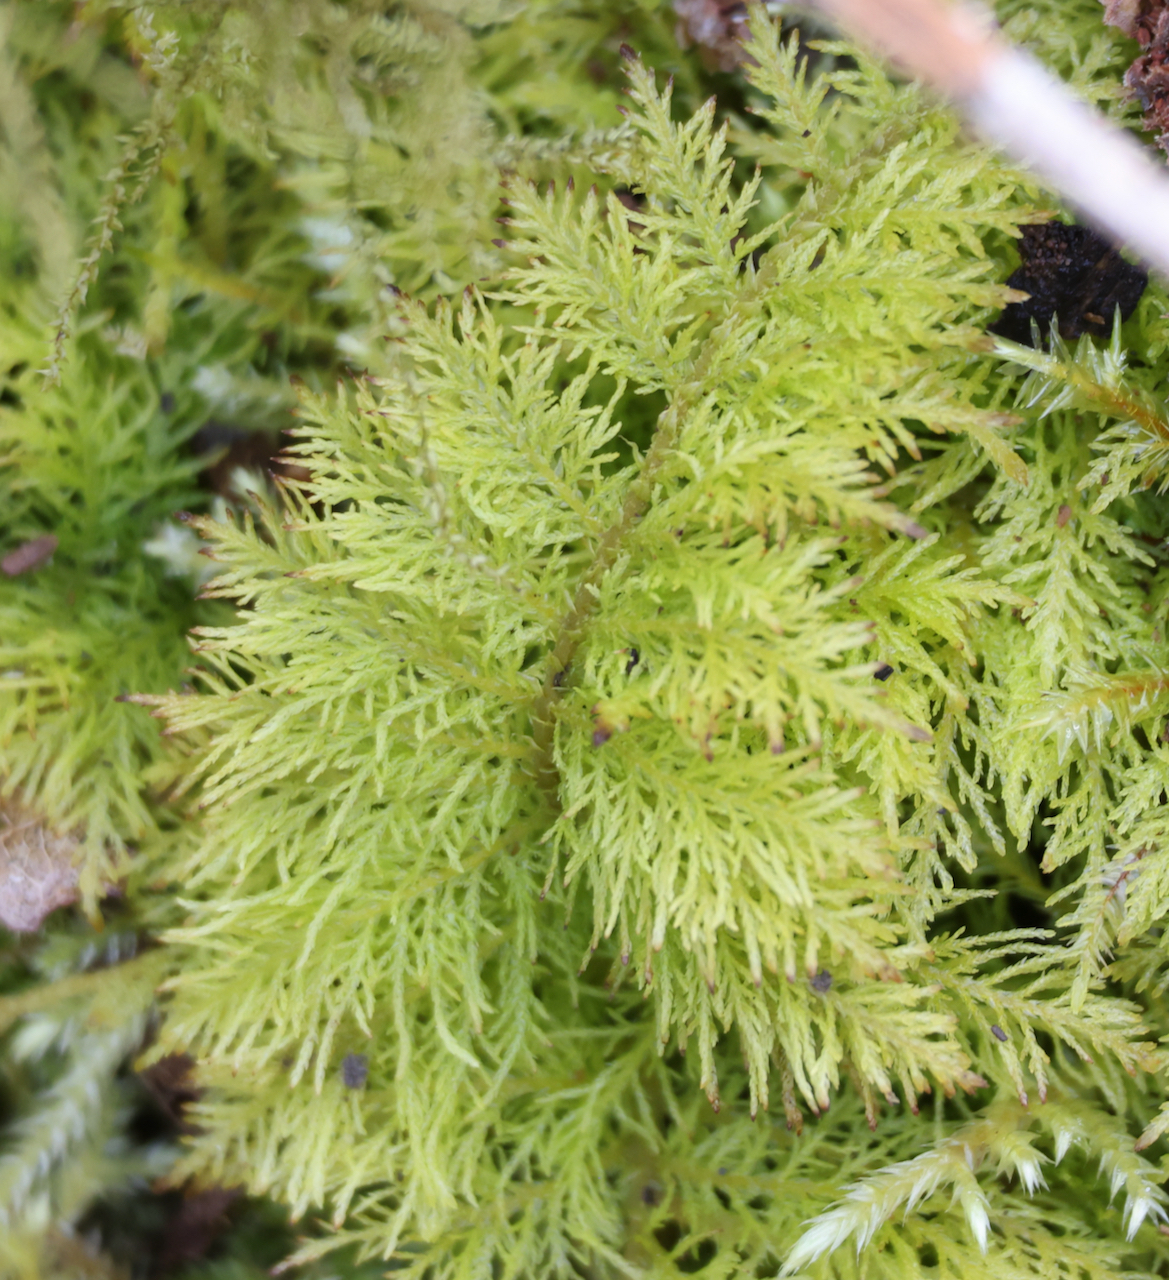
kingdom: Plantae
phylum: Bryophyta
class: Bryopsida
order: Hypnales
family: Thuidiaceae
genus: Thuidium
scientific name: Thuidium tamariscinum
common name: Common tamarisk-moss
